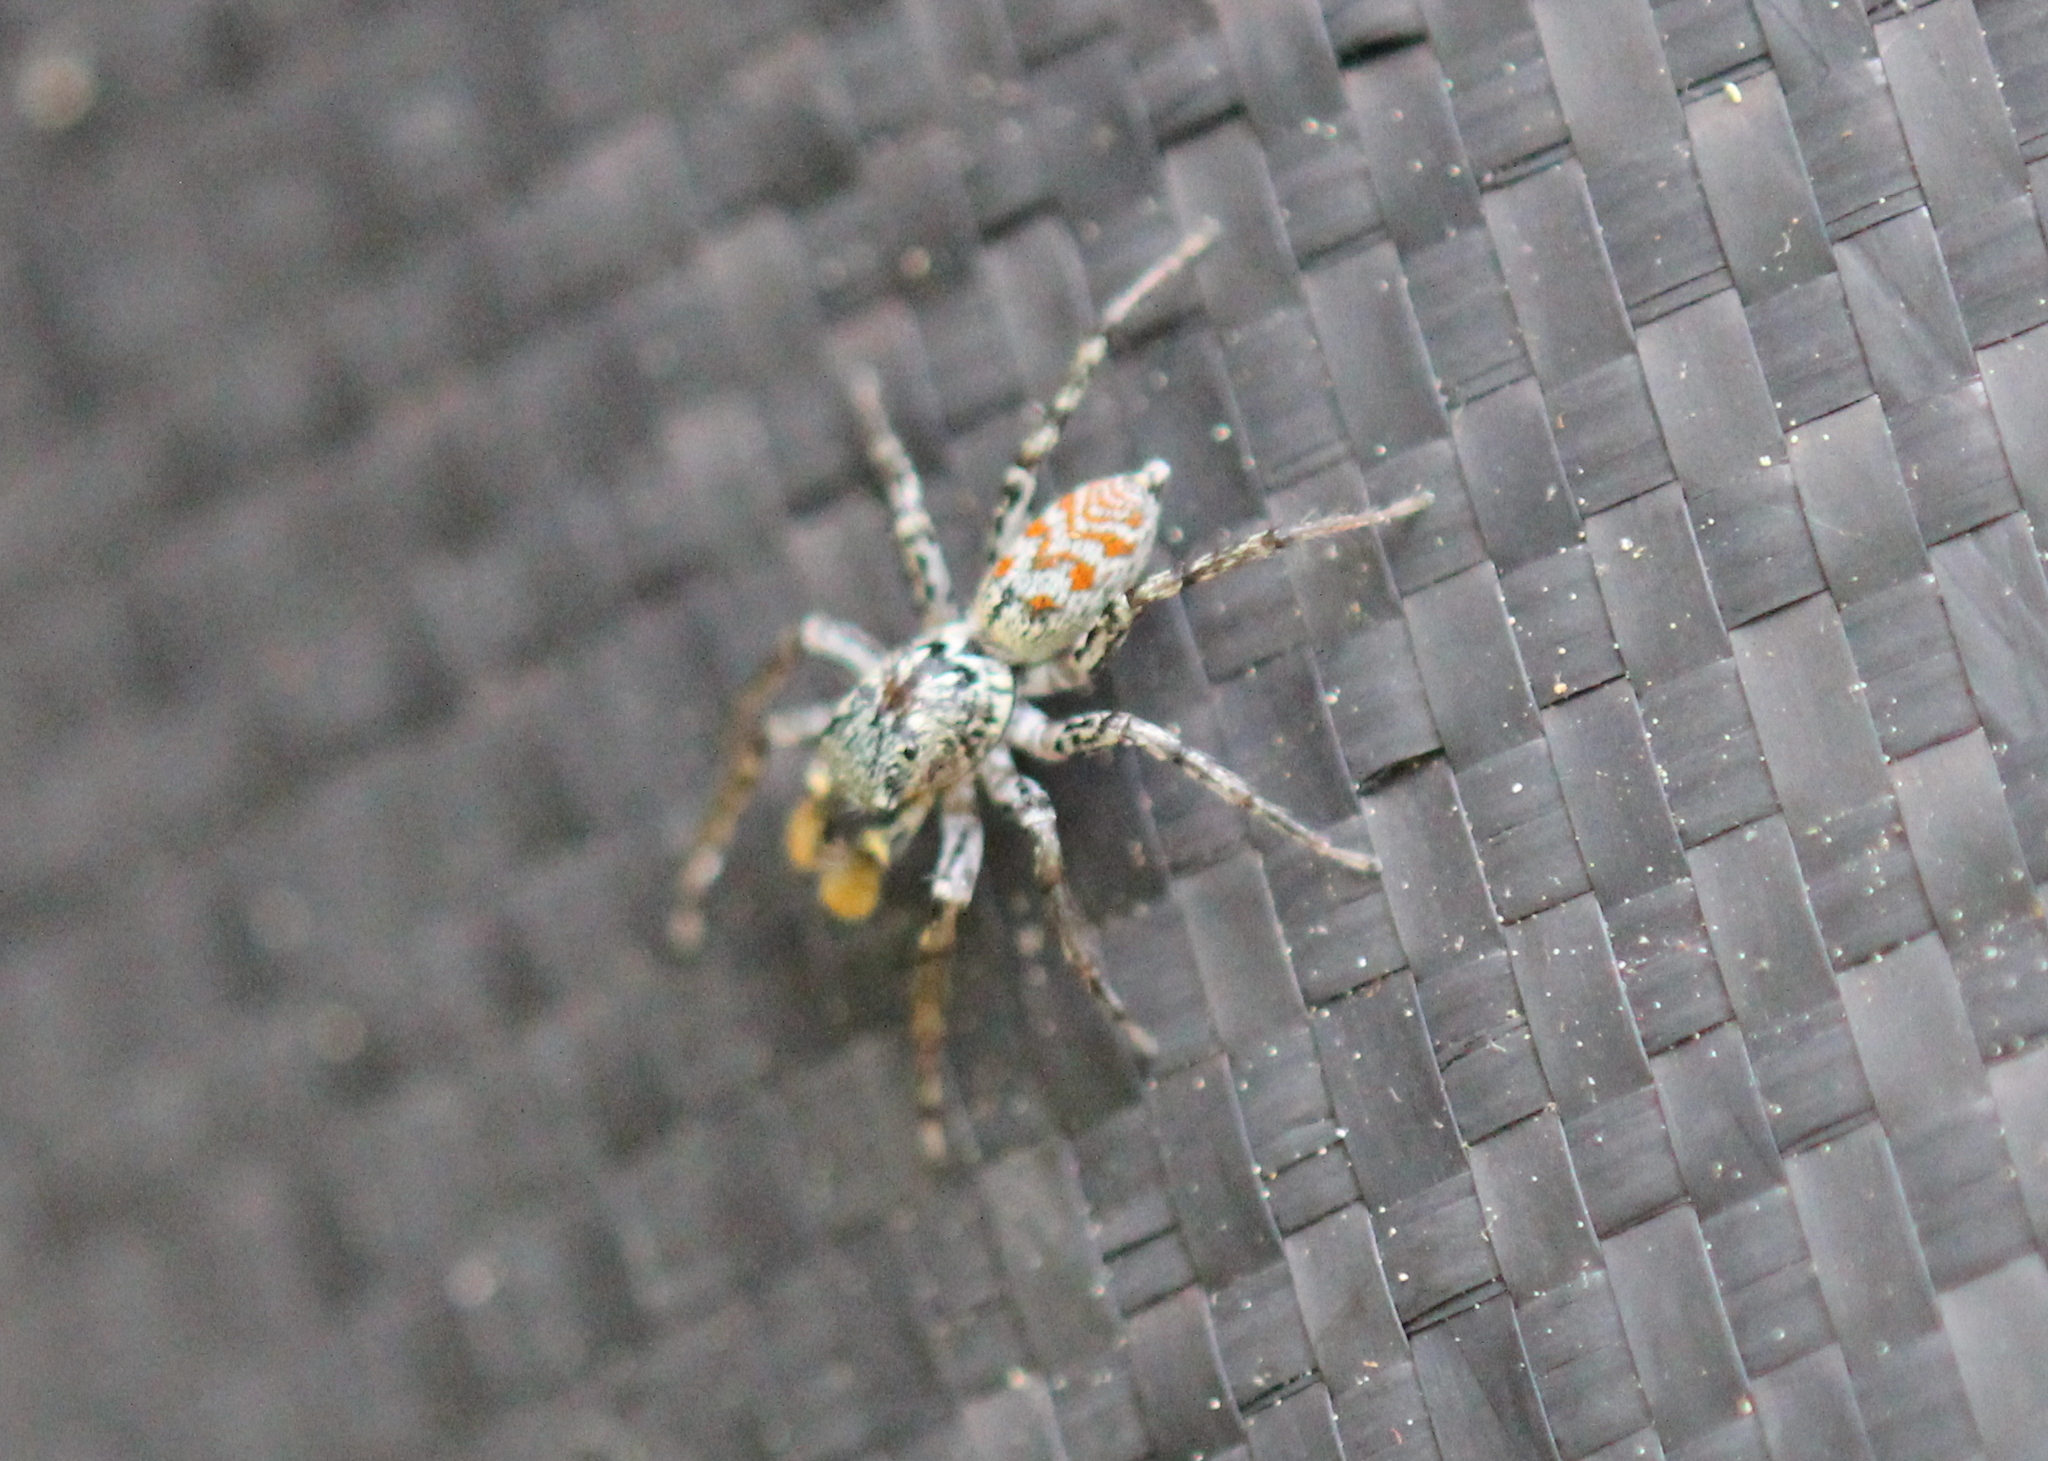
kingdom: Animalia
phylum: Arthropoda
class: Arachnida
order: Araneae
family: Salticidae
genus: Maevia
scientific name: Maevia inclemens
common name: Dimorphic jumper
